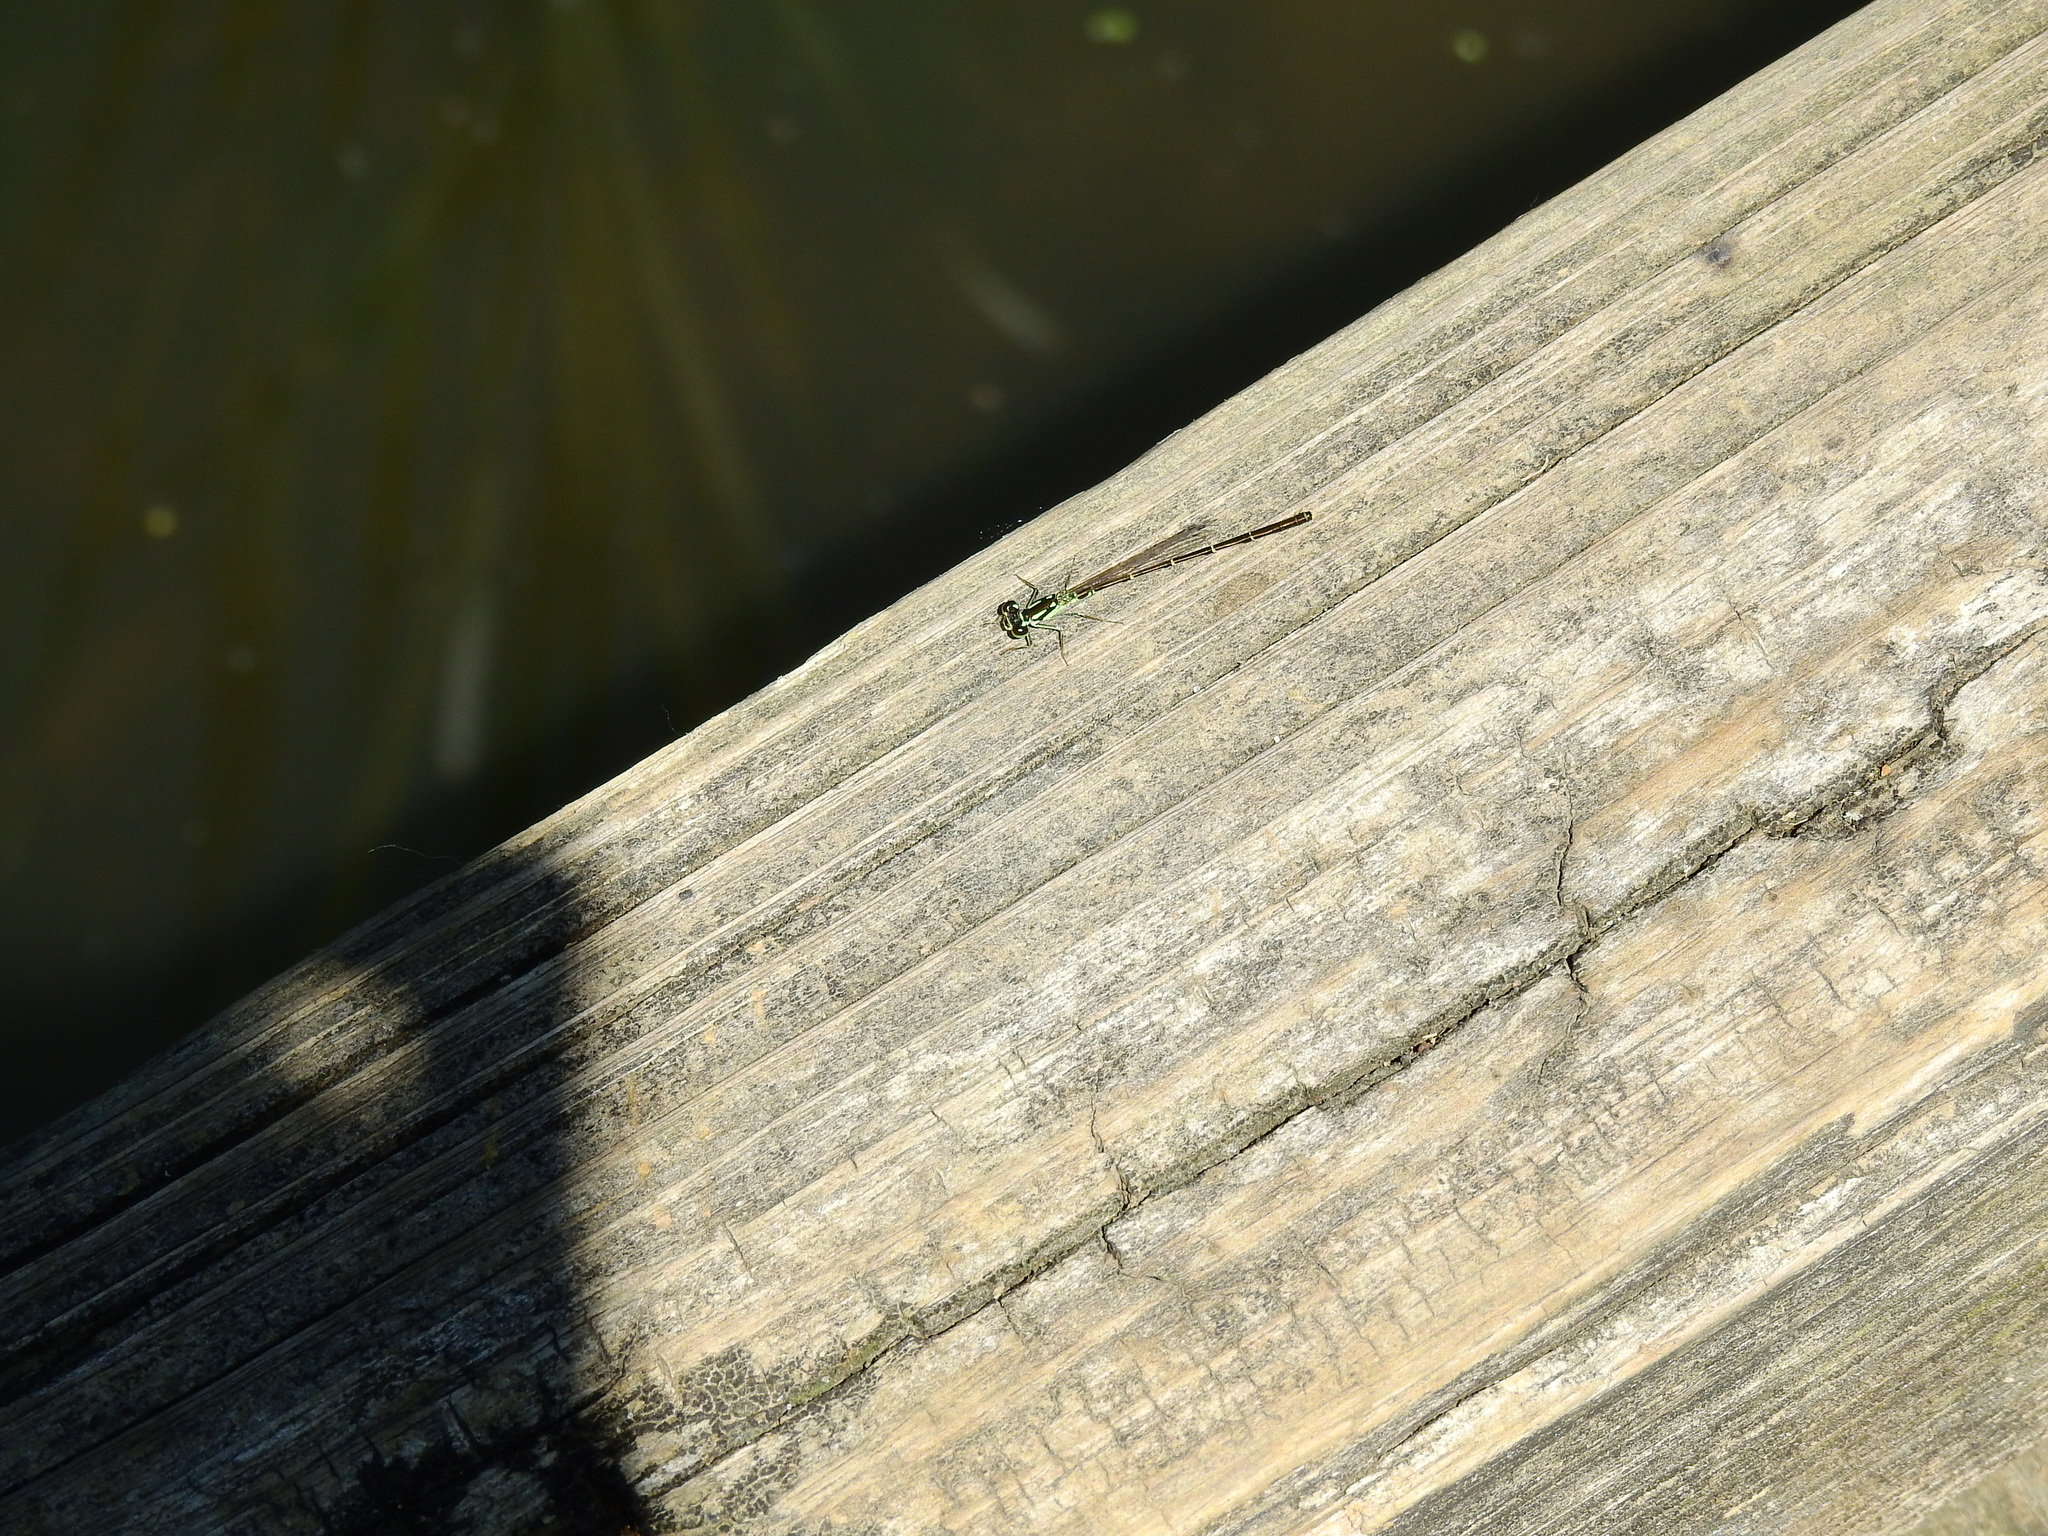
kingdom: Animalia
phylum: Arthropoda
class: Insecta
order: Odonata
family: Coenagrionidae
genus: Ischnura
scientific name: Ischnura posita
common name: Fragile forktail
